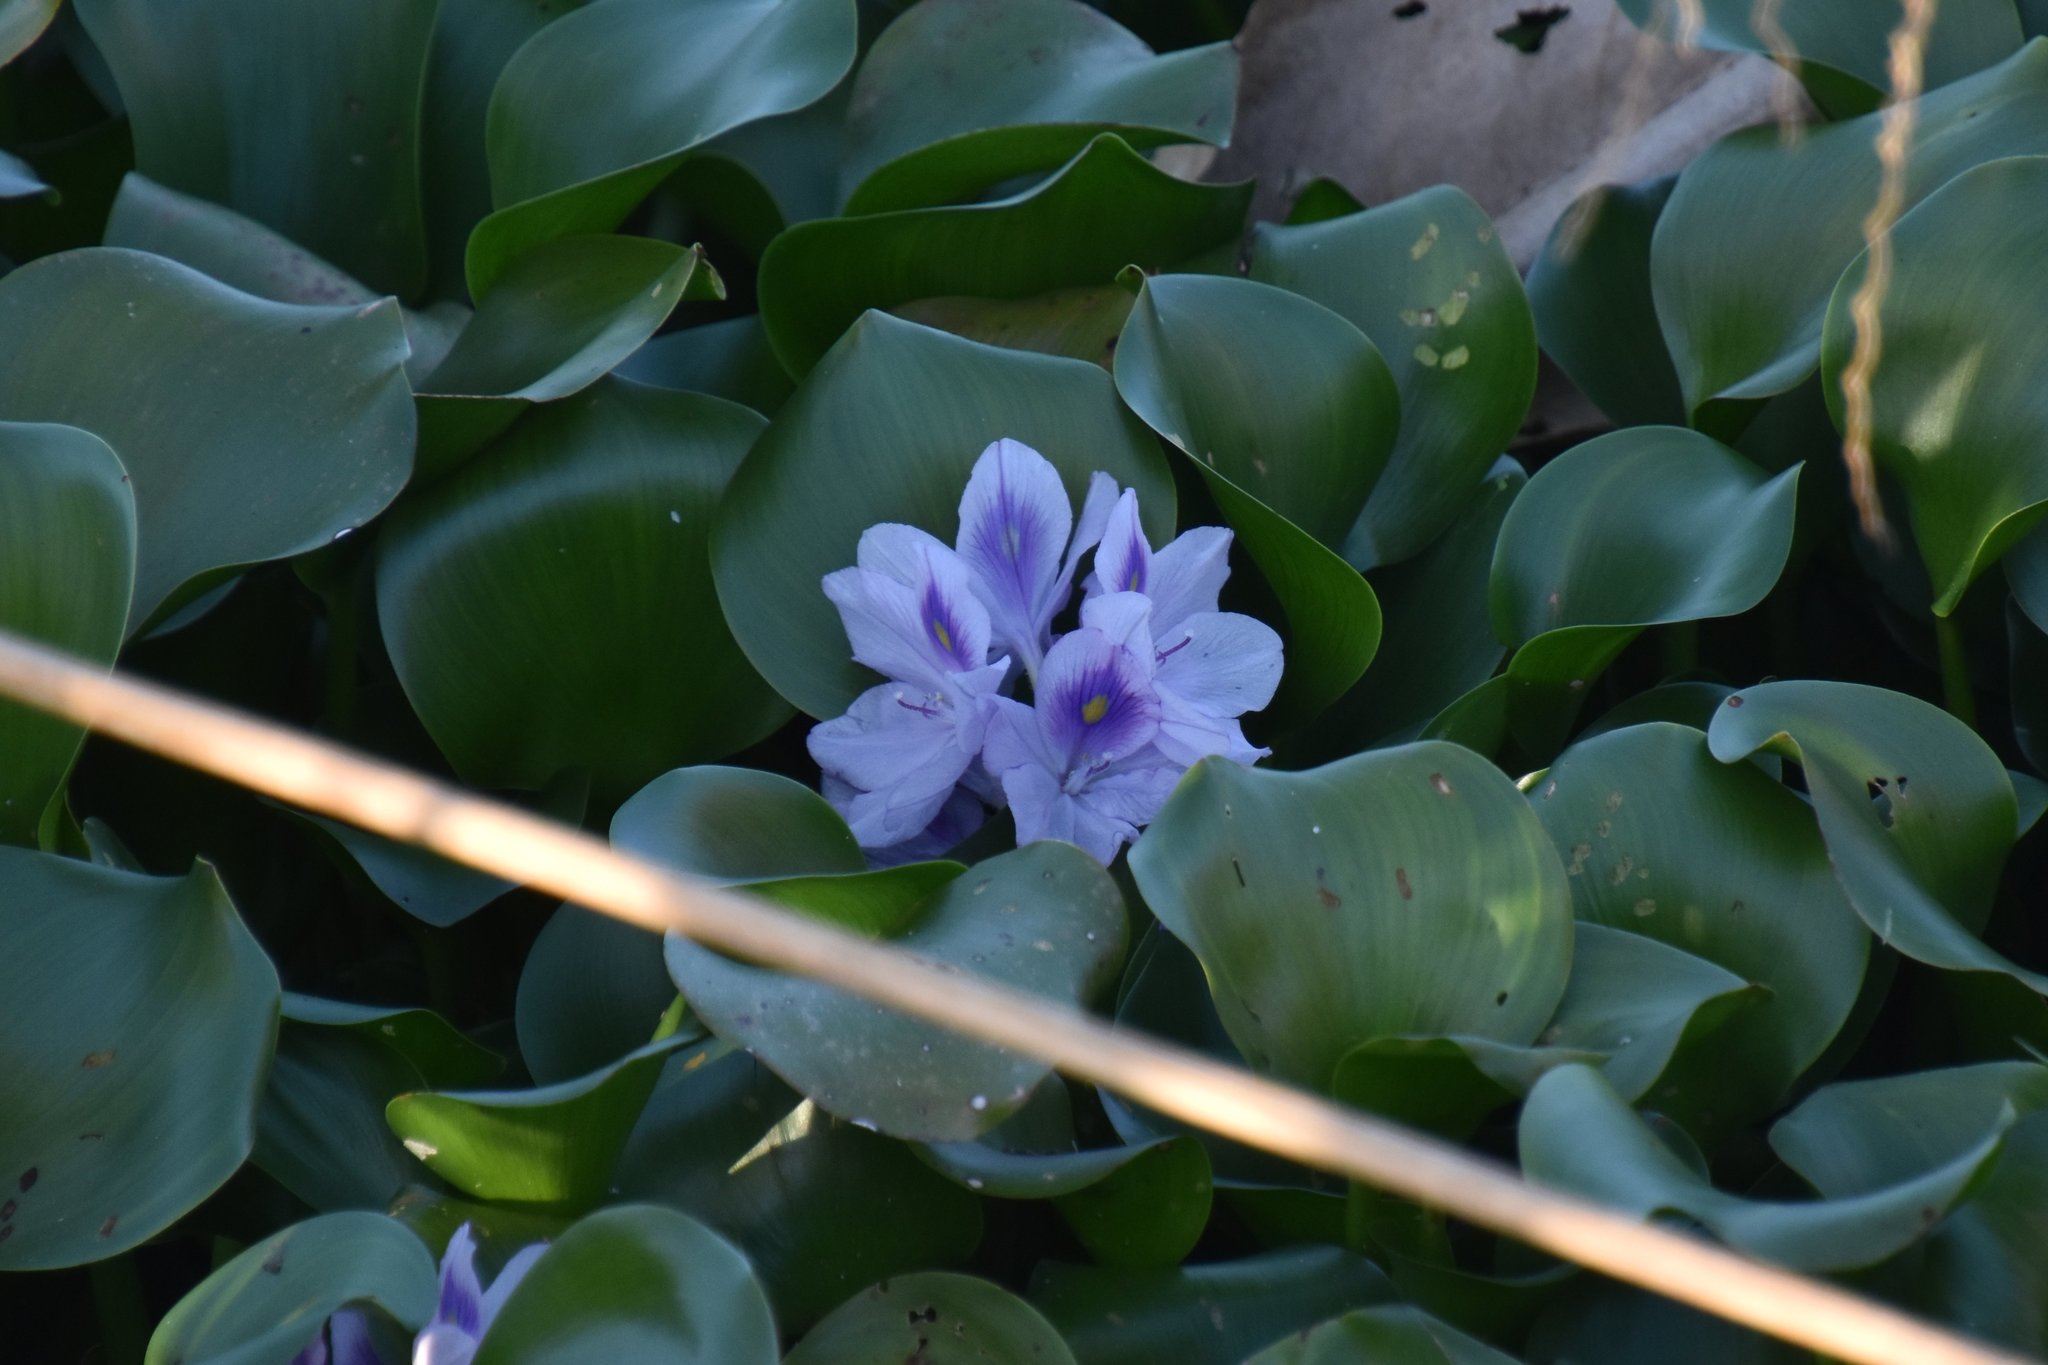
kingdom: Plantae
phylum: Tracheophyta
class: Liliopsida
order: Commelinales
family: Pontederiaceae
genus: Pontederia
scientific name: Pontederia crassipes
